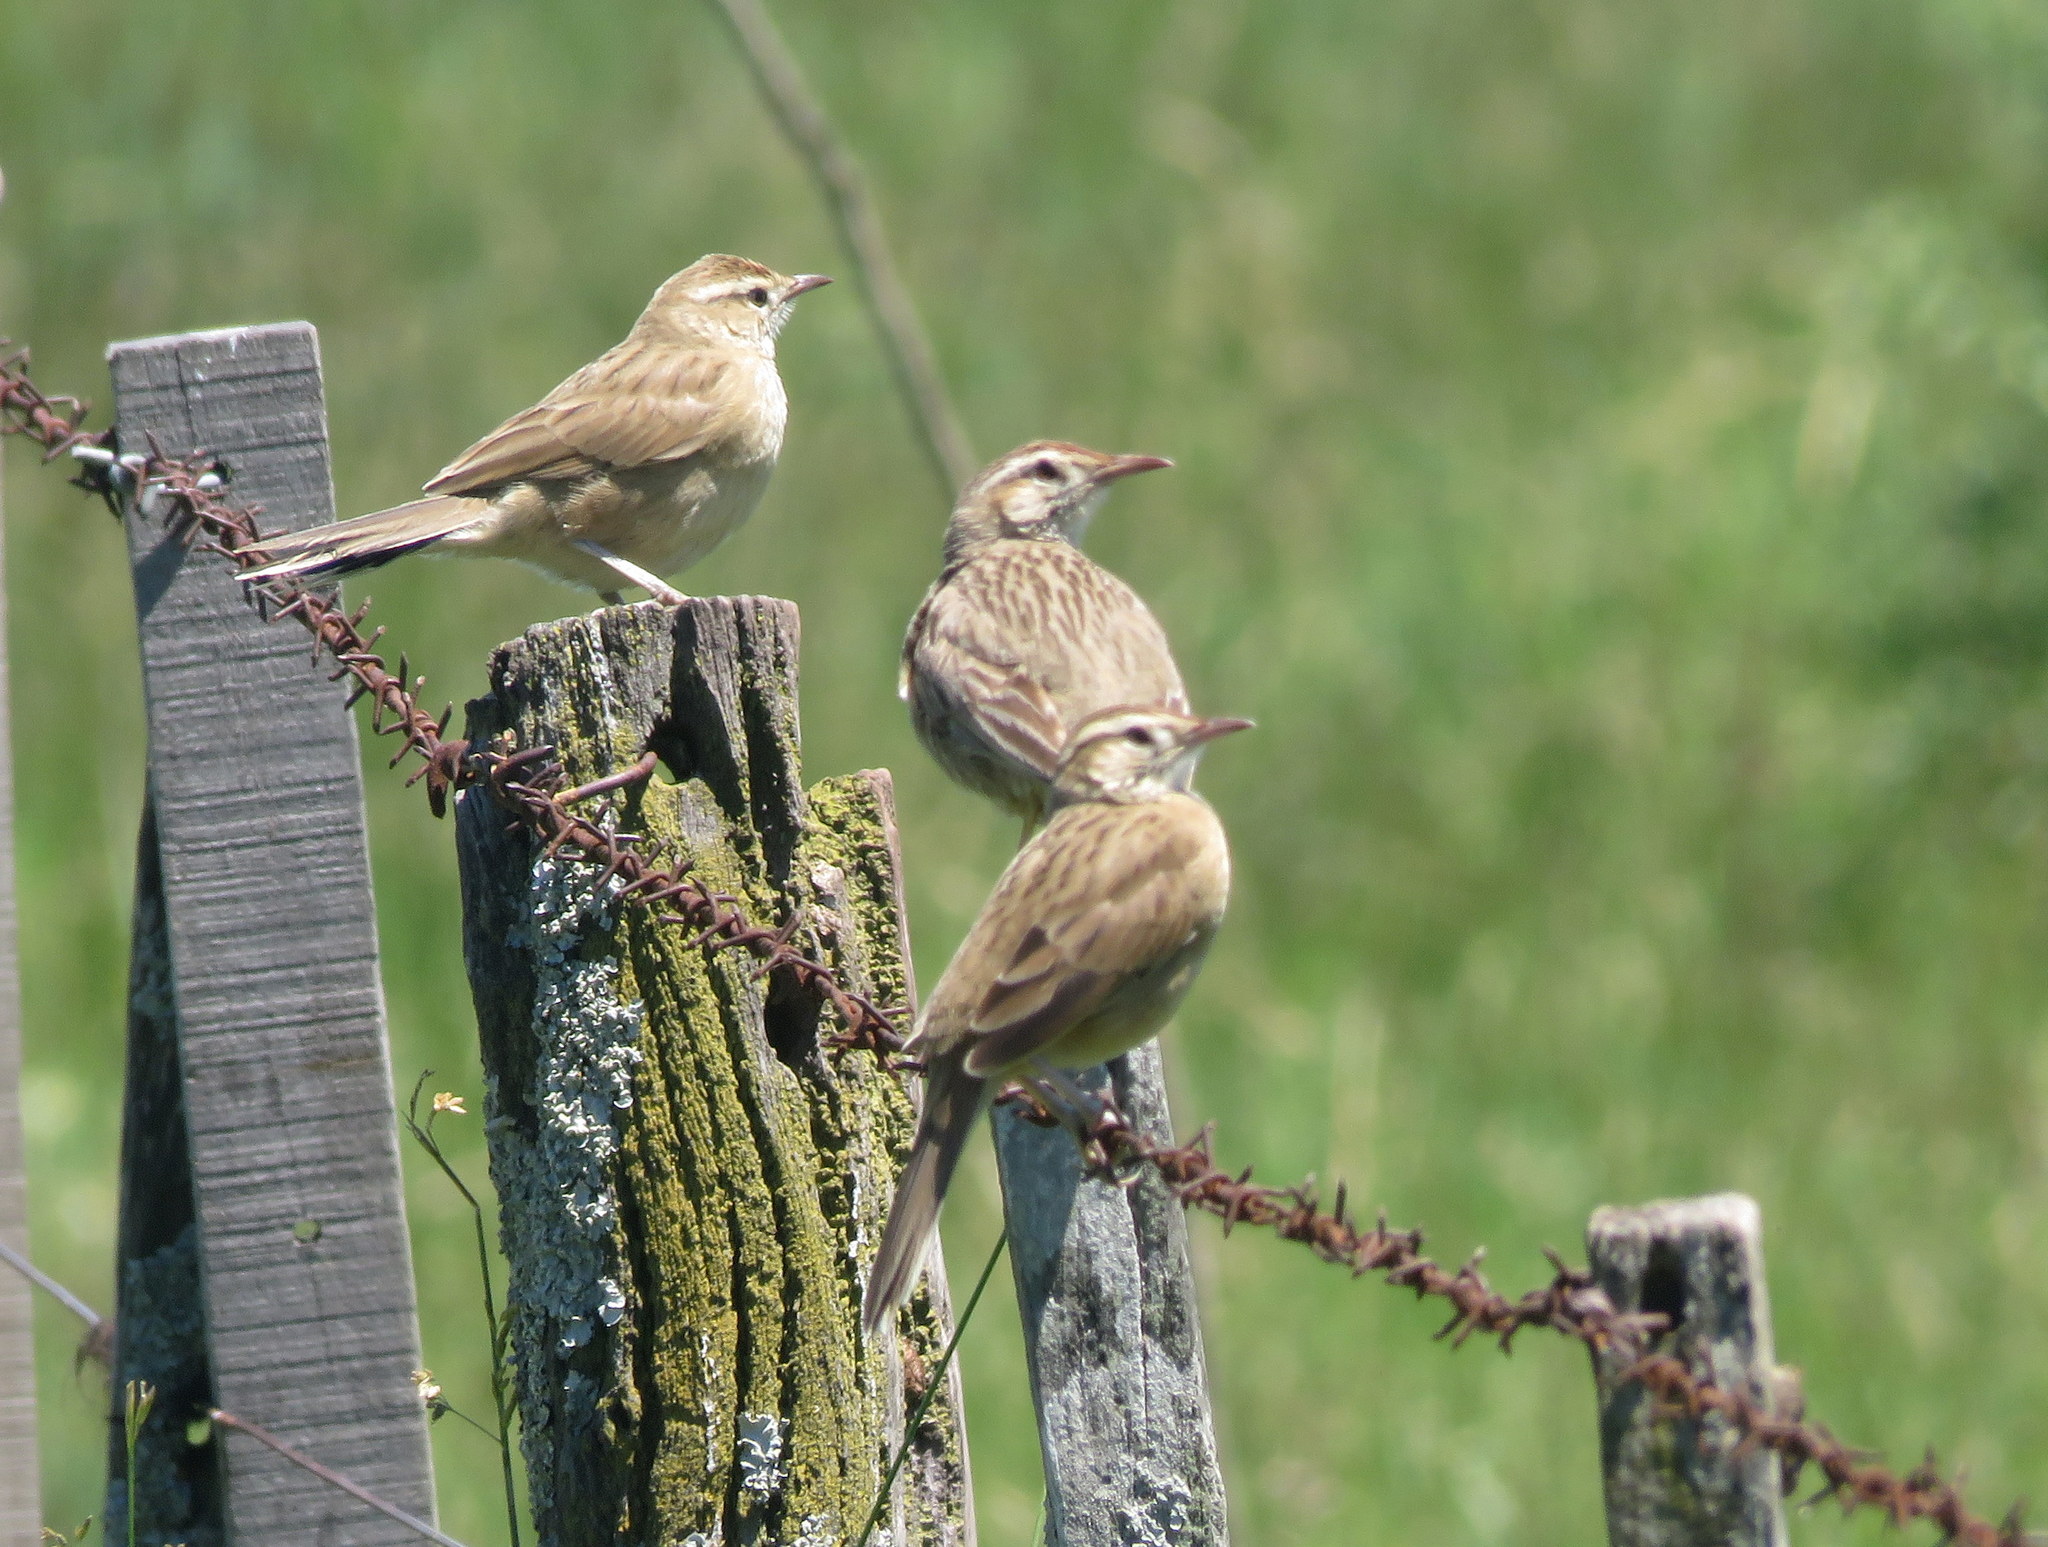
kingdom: Animalia
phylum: Chordata
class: Aves
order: Passeriformes
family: Furnariidae
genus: Anumbius
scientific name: Anumbius annumbi
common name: Firewood-gatherer
